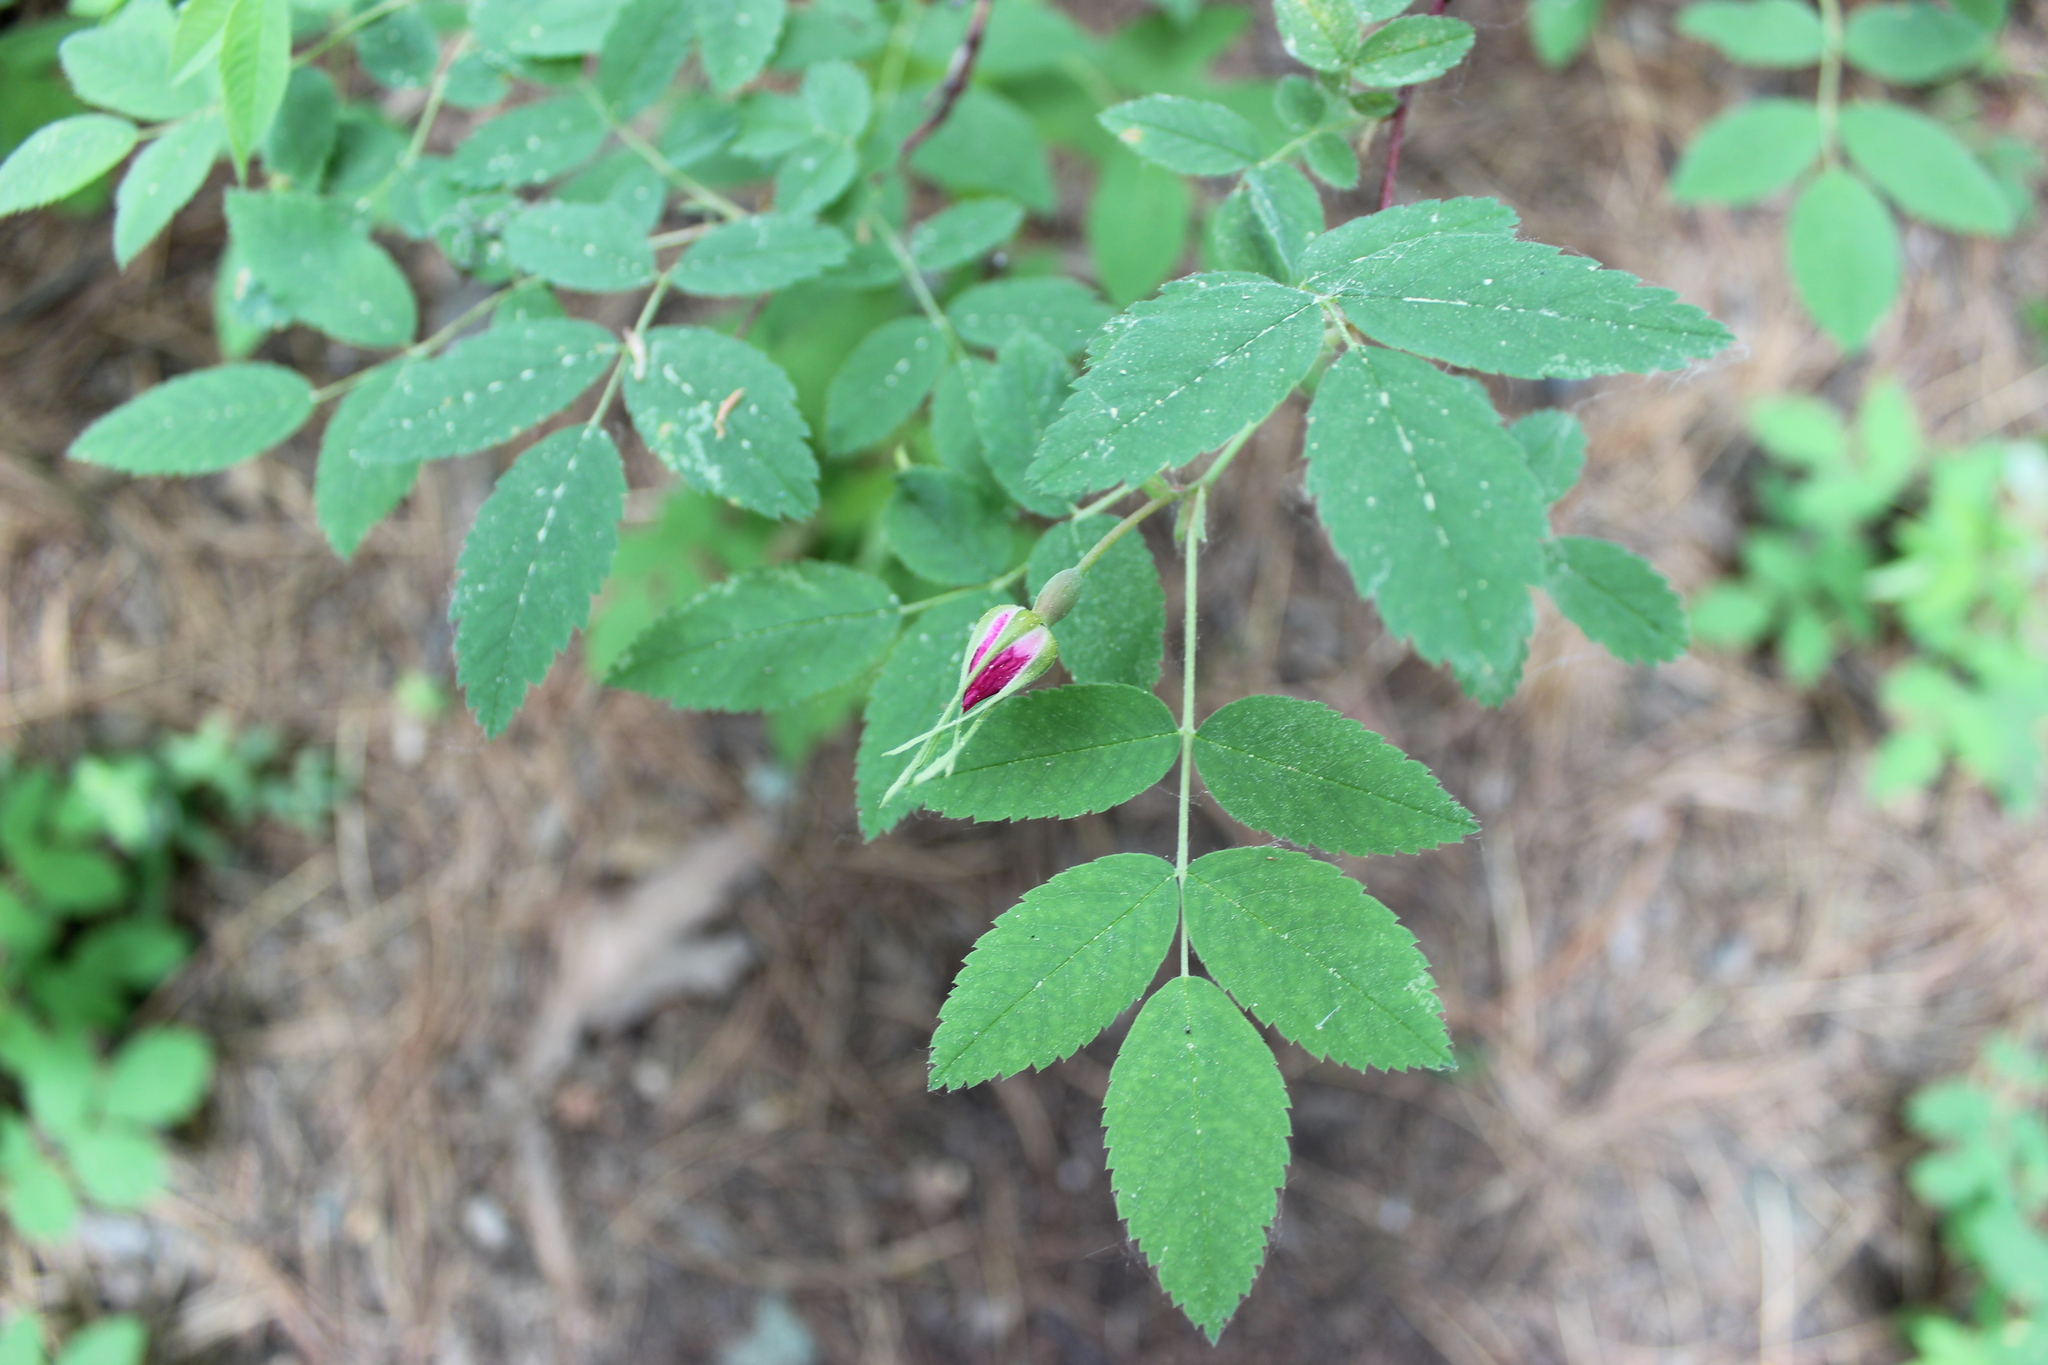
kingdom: Plantae
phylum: Tracheophyta
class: Magnoliopsida
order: Rosales
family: Rosaceae
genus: Rosa
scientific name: Rosa acicularis
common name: Prickly rose
